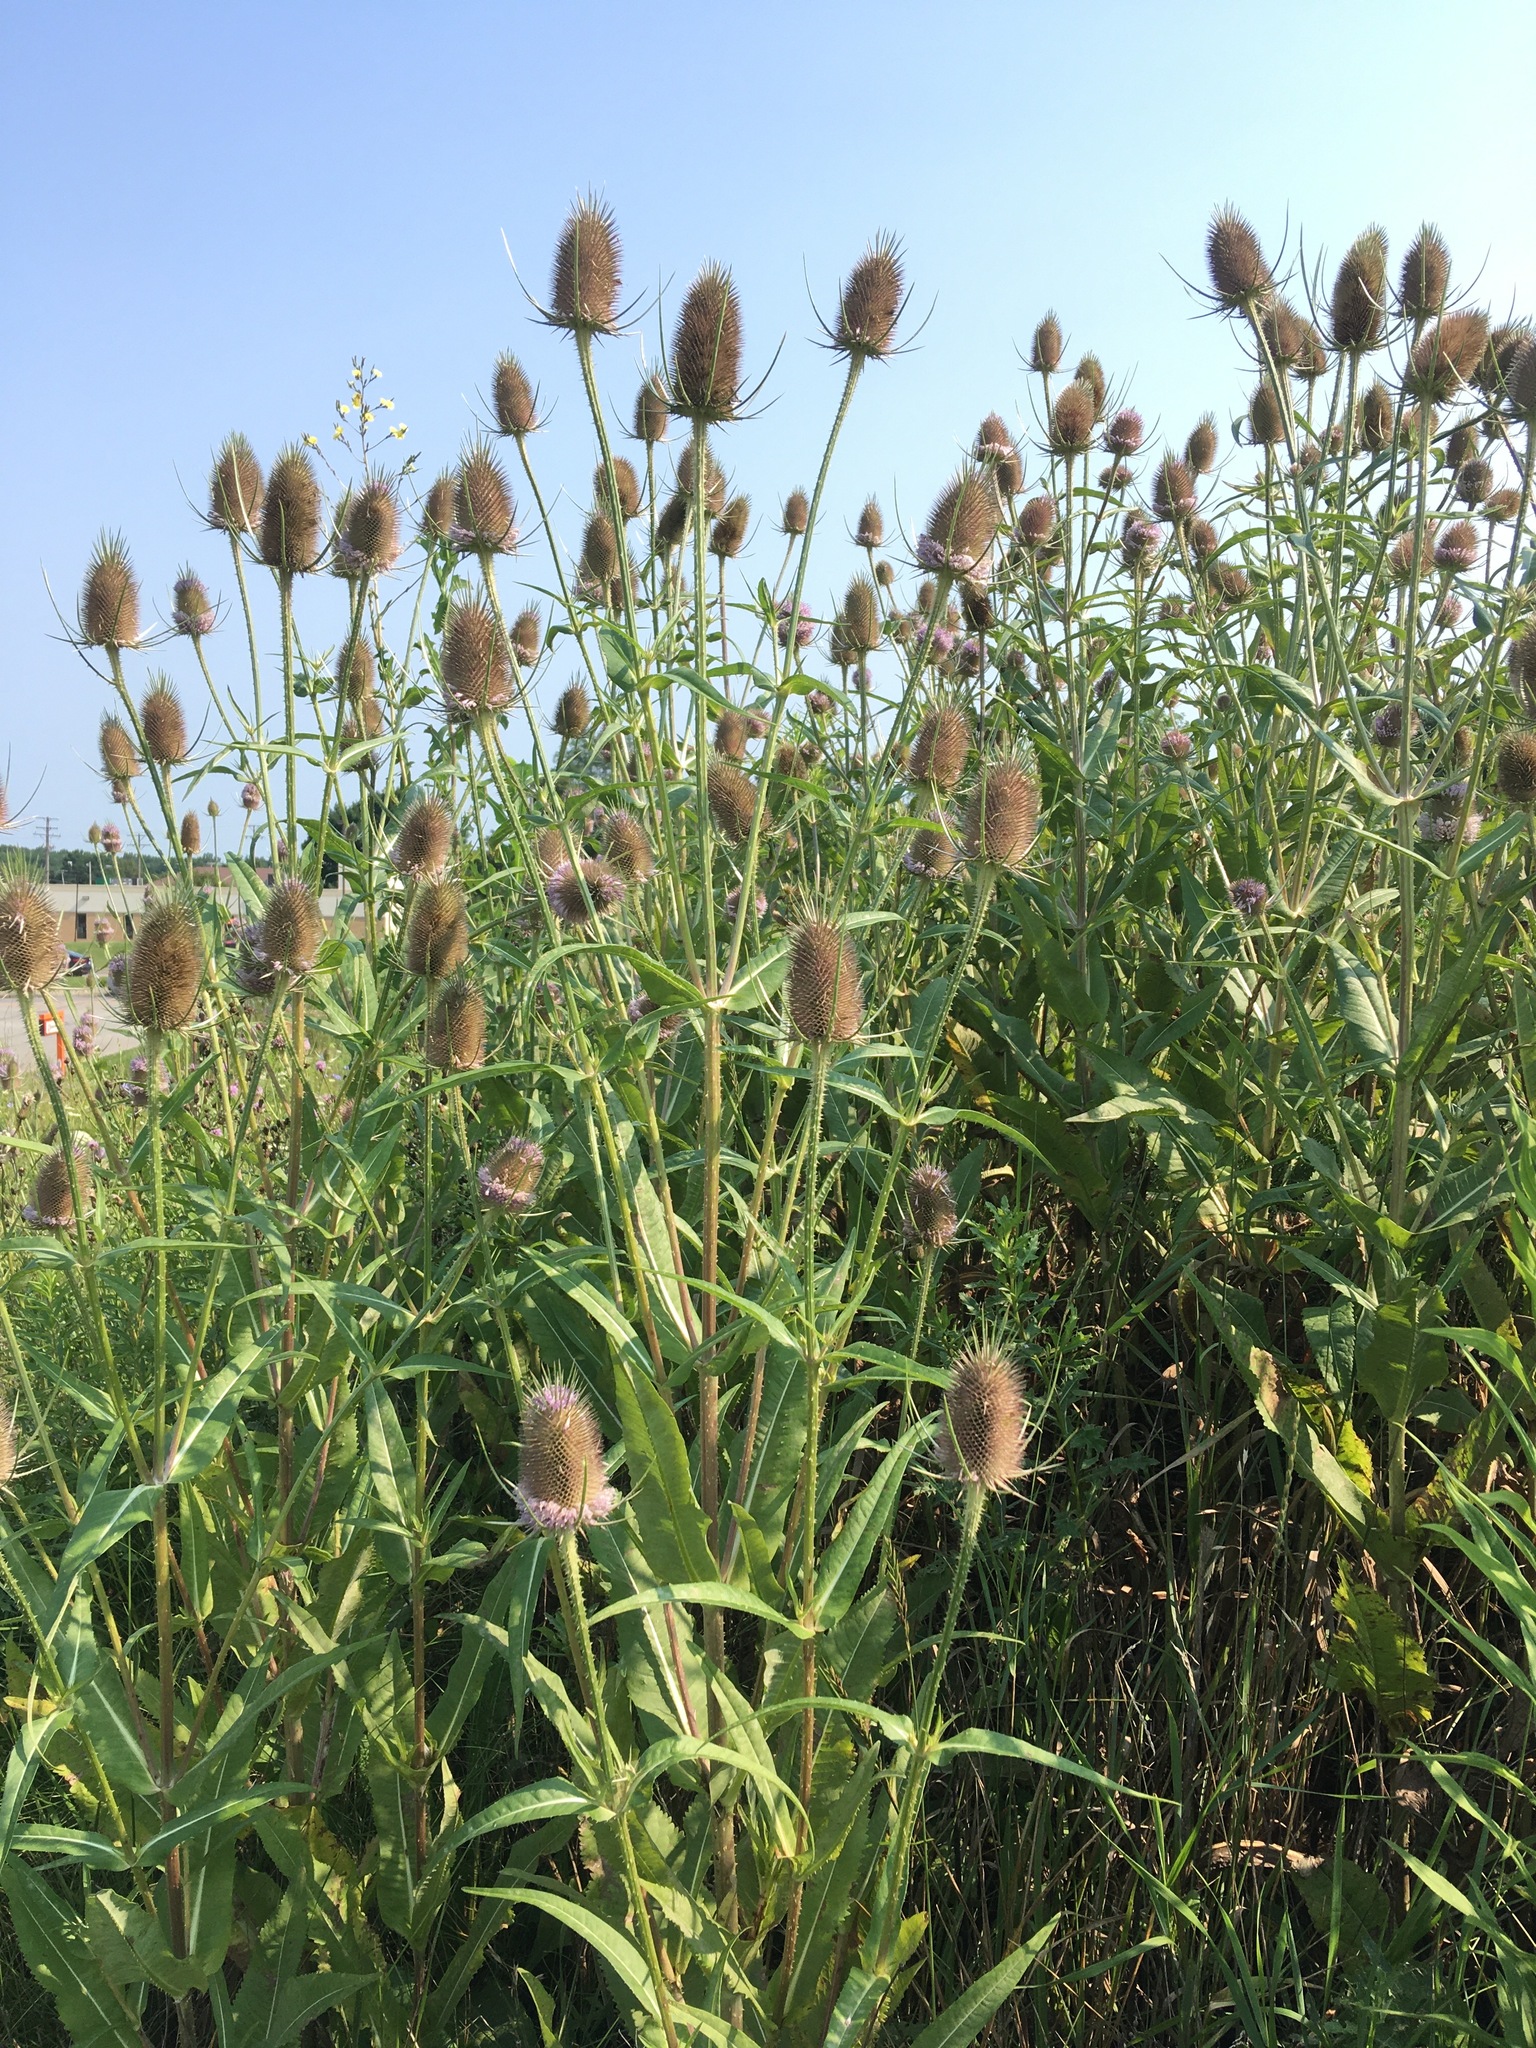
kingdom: Plantae
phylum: Tracheophyta
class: Magnoliopsida
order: Dipsacales
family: Caprifoliaceae
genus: Dipsacus
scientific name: Dipsacus fullonum
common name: Teasel
